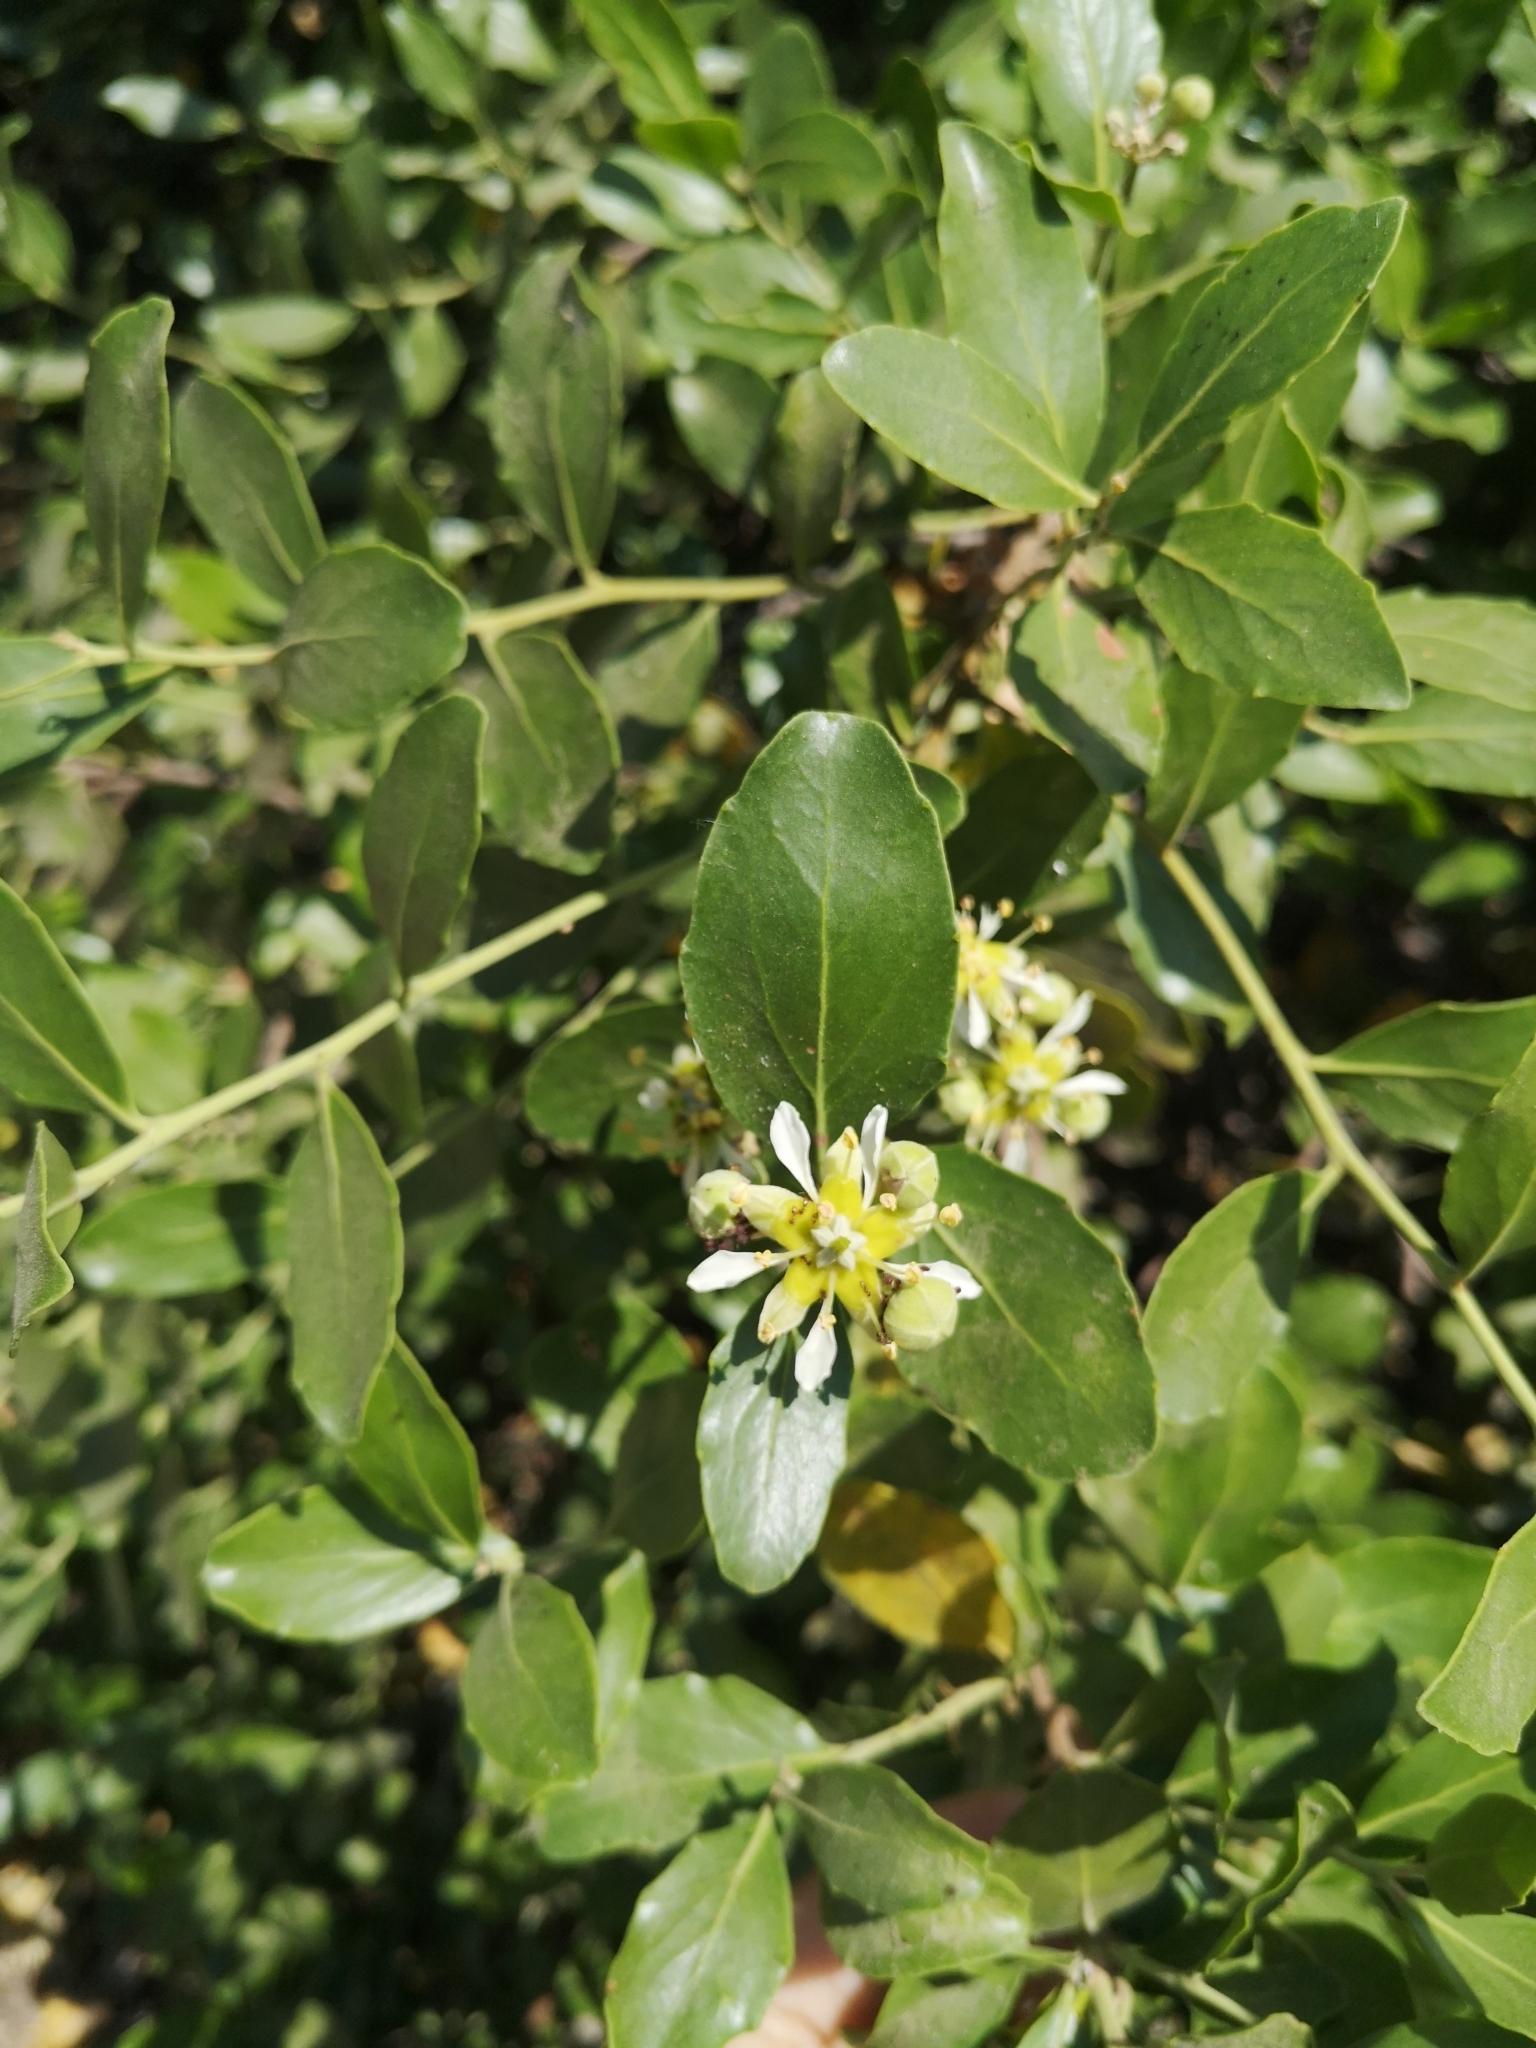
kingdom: Plantae
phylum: Tracheophyta
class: Magnoliopsida
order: Fabales
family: Quillajaceae
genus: Quillaja
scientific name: Quillaja saponaria
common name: Murillo's-bark
